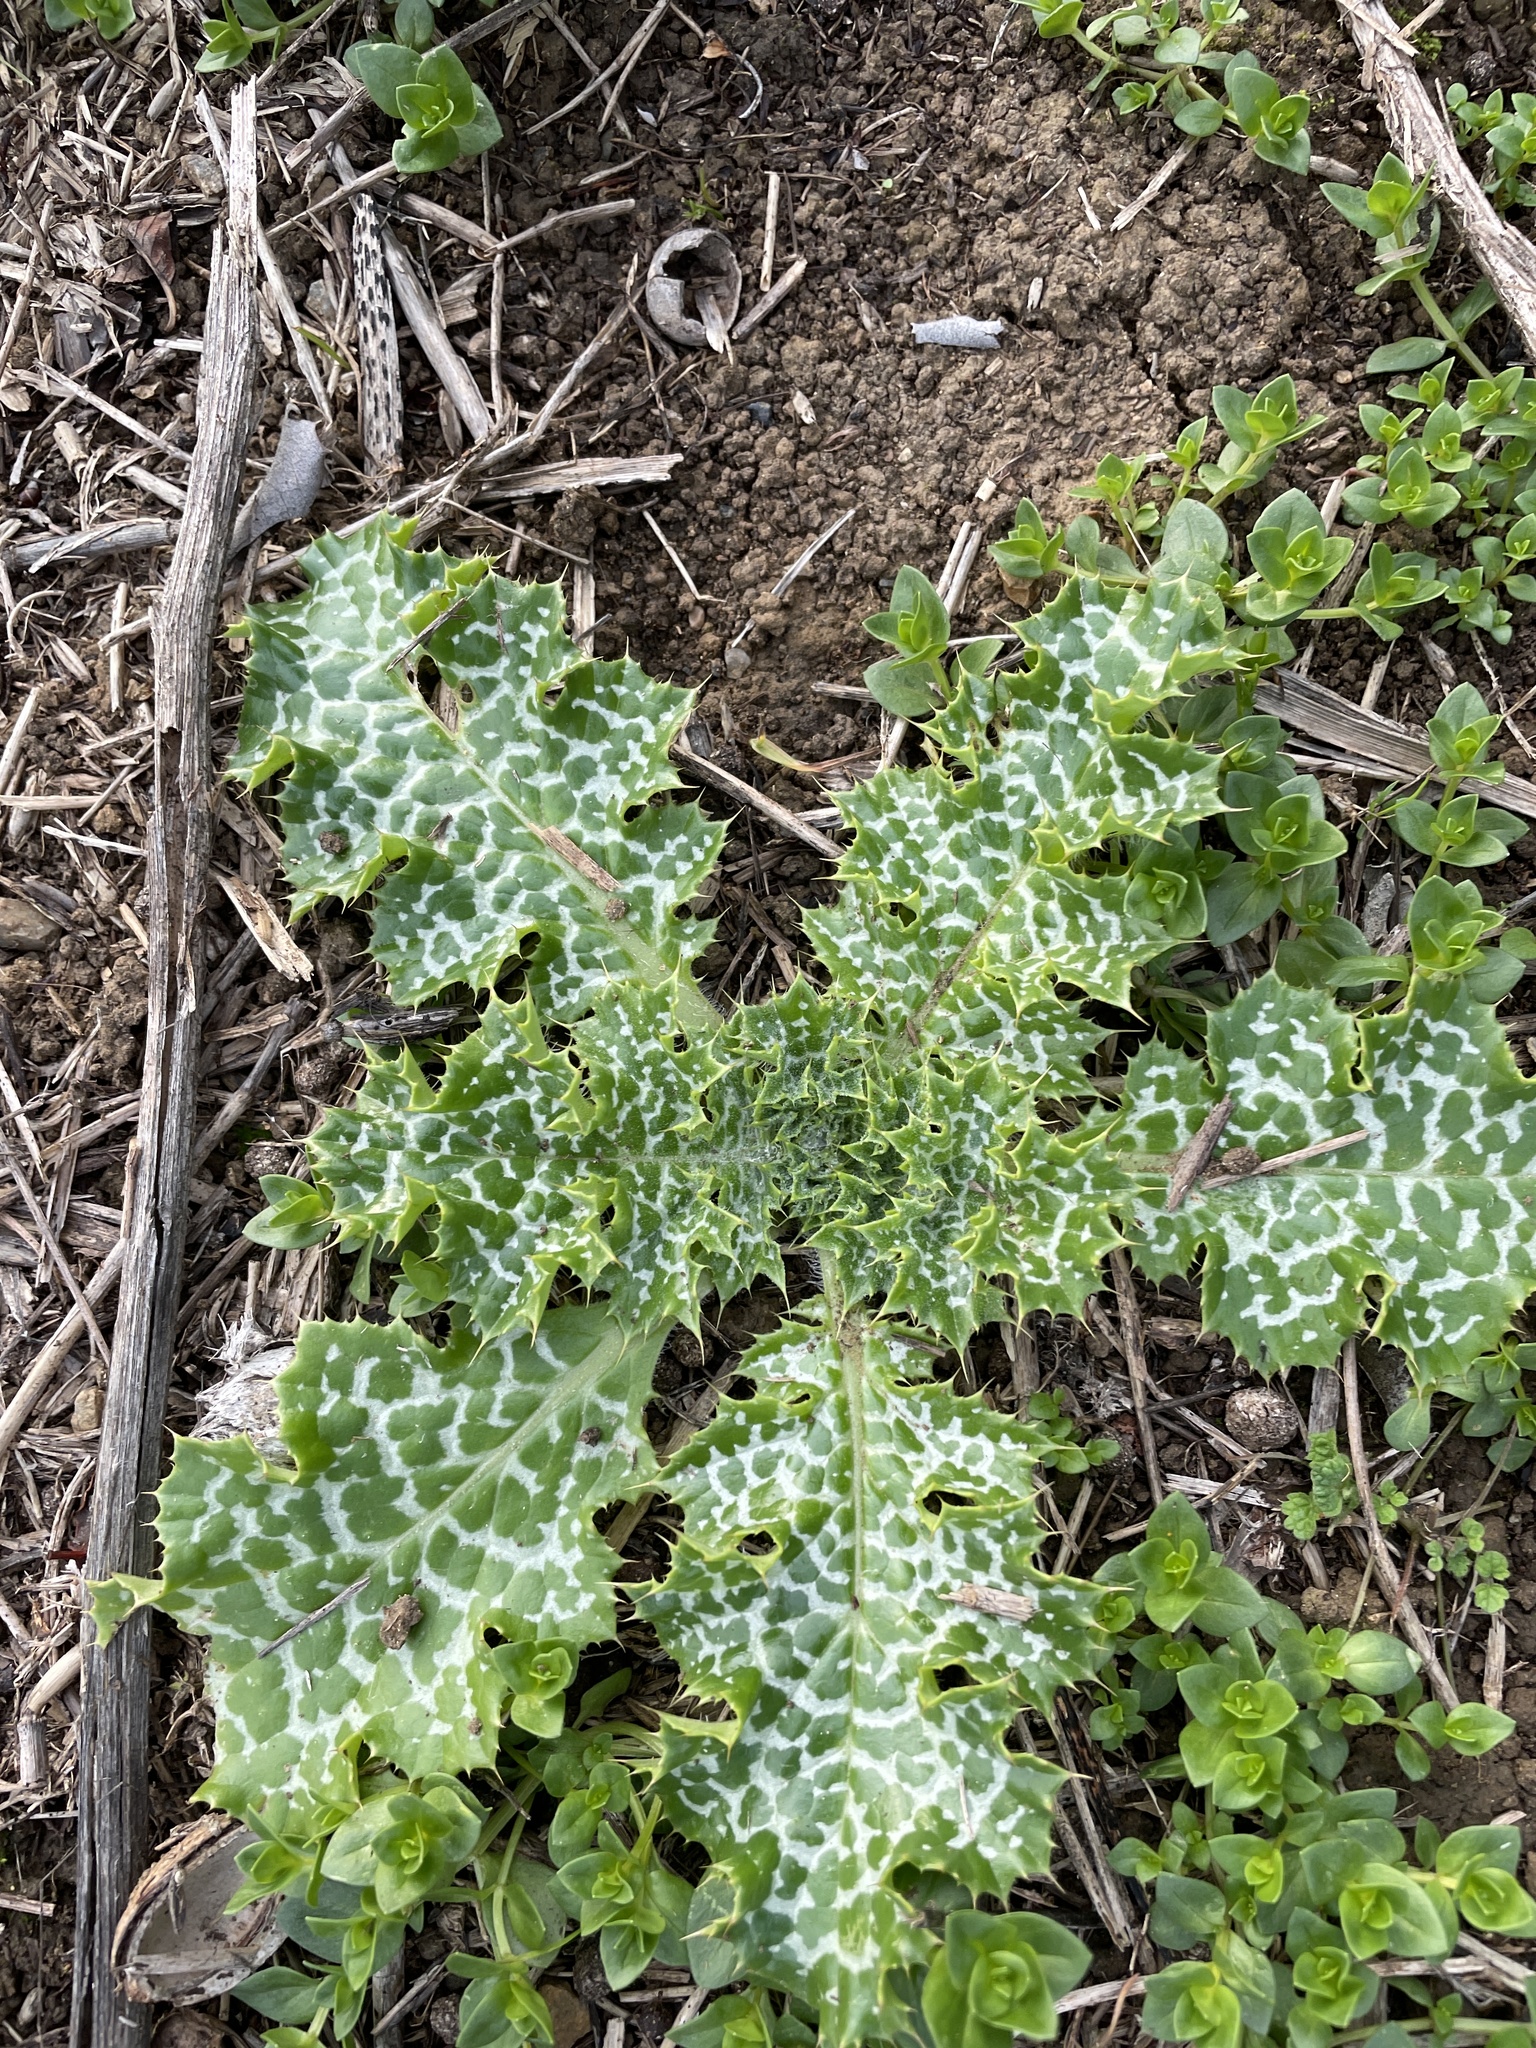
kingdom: Plantae
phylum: Tracheophyta
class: Magnoliopsida
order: Asterales
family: Asteraceae
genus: Silybum
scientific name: Silybum marianum
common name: Milk thistle
